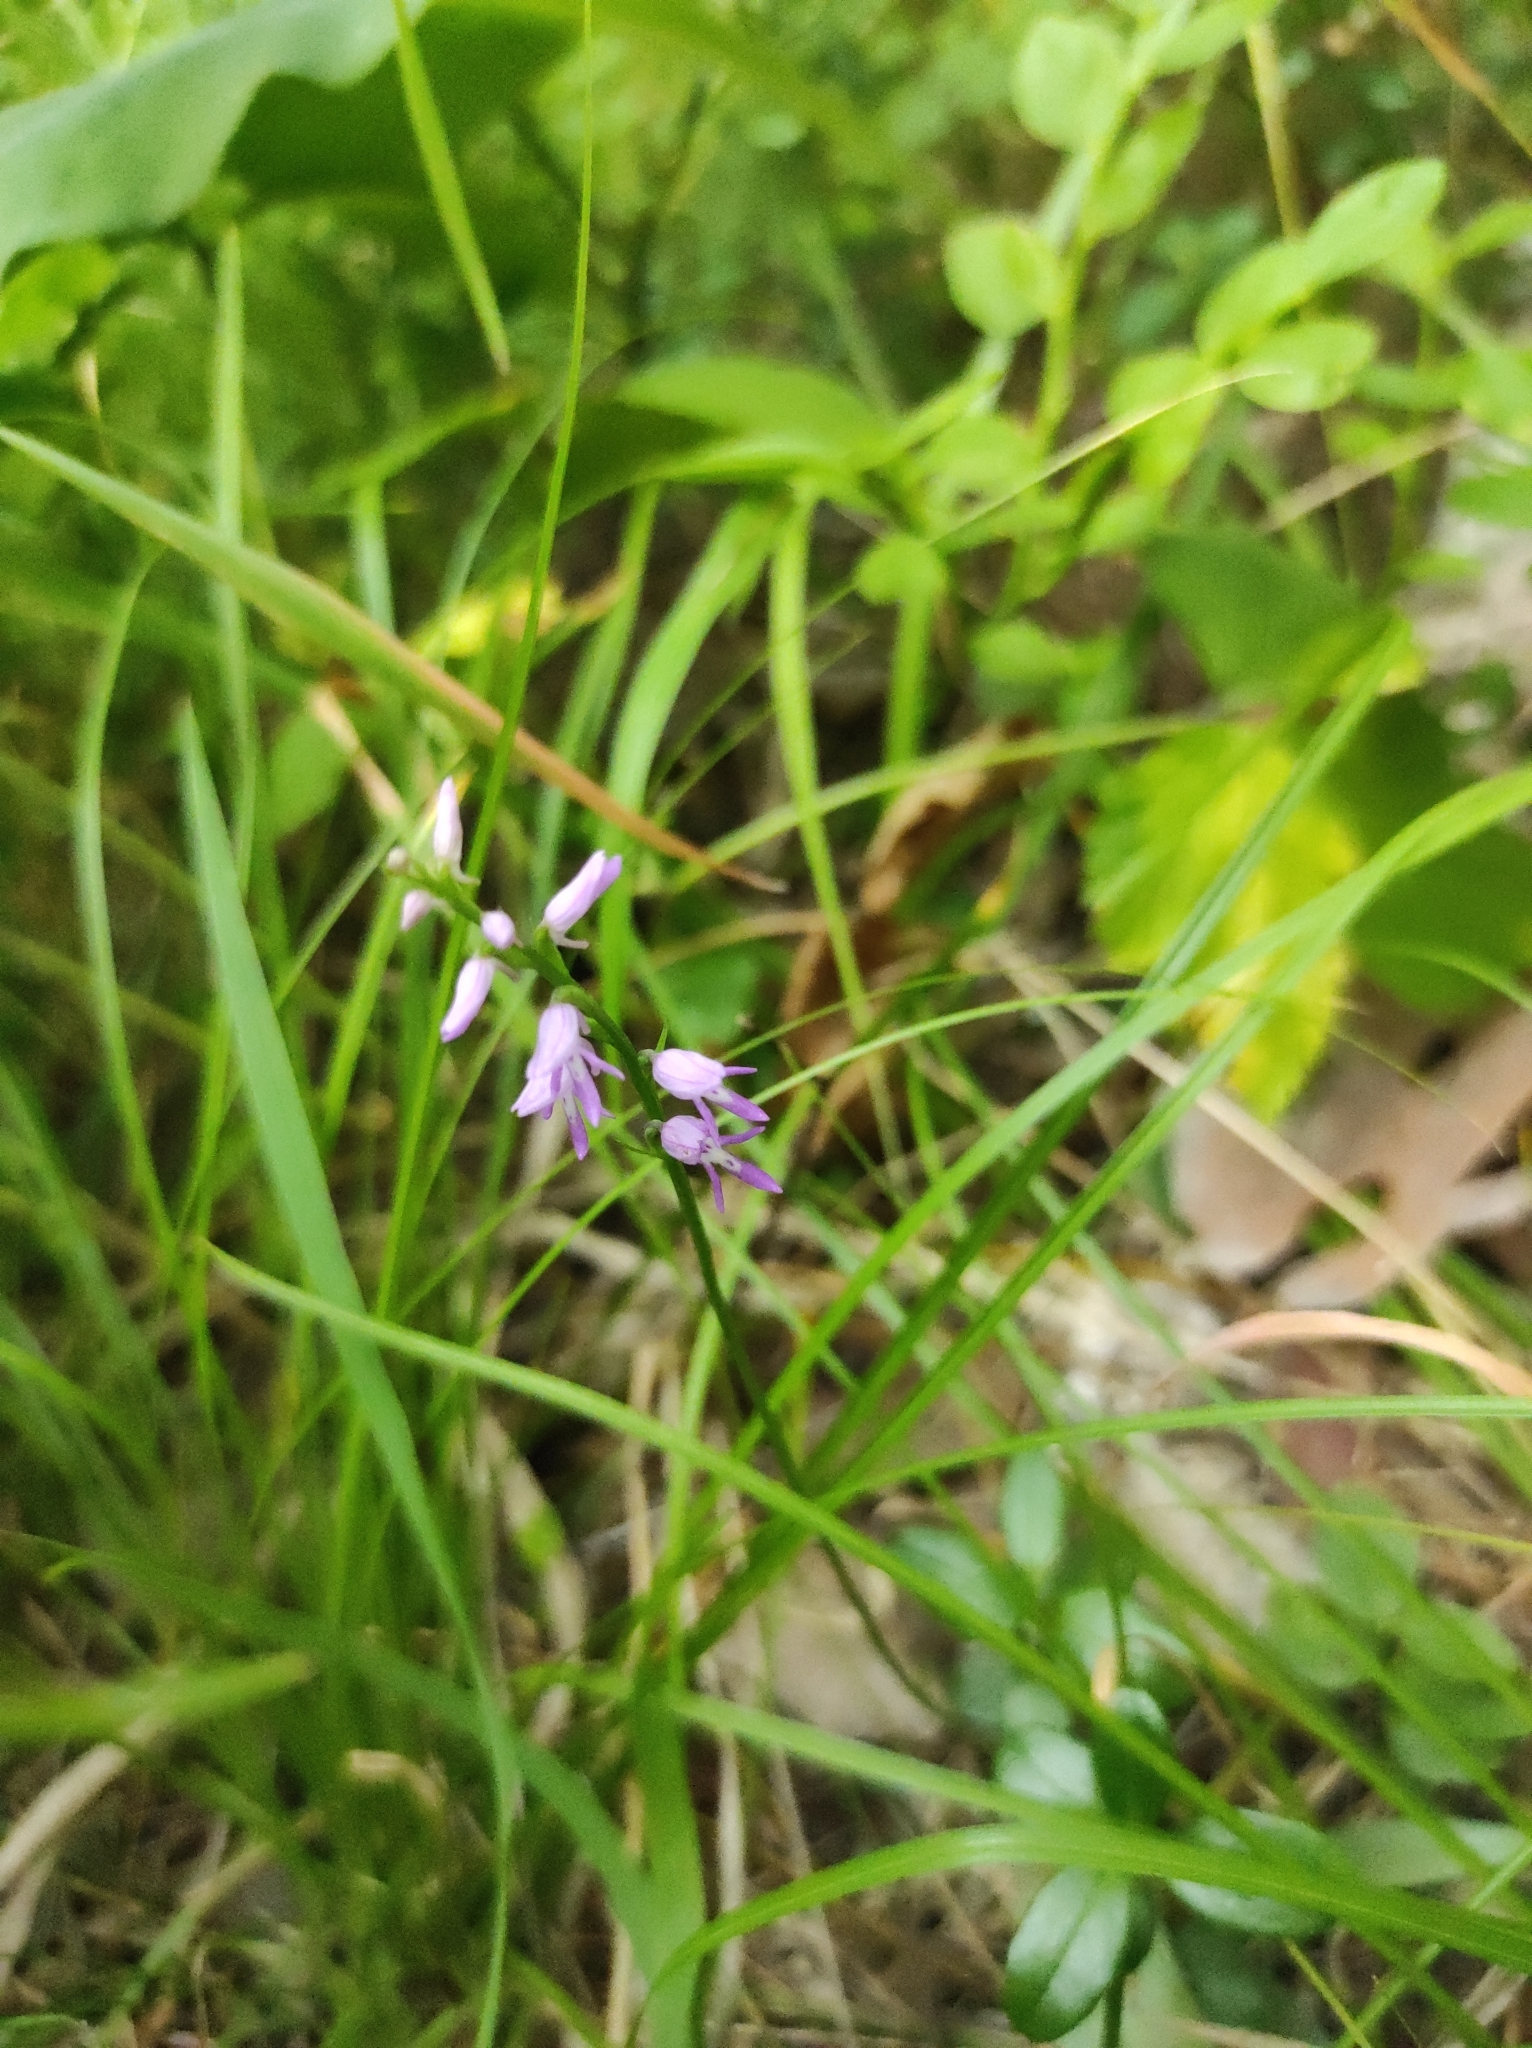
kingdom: Plantae
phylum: Tracheophyta
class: Liliopsida
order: Asparagales
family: Orchidaceae
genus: Hemipilia
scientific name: Hemipilia cucullata
